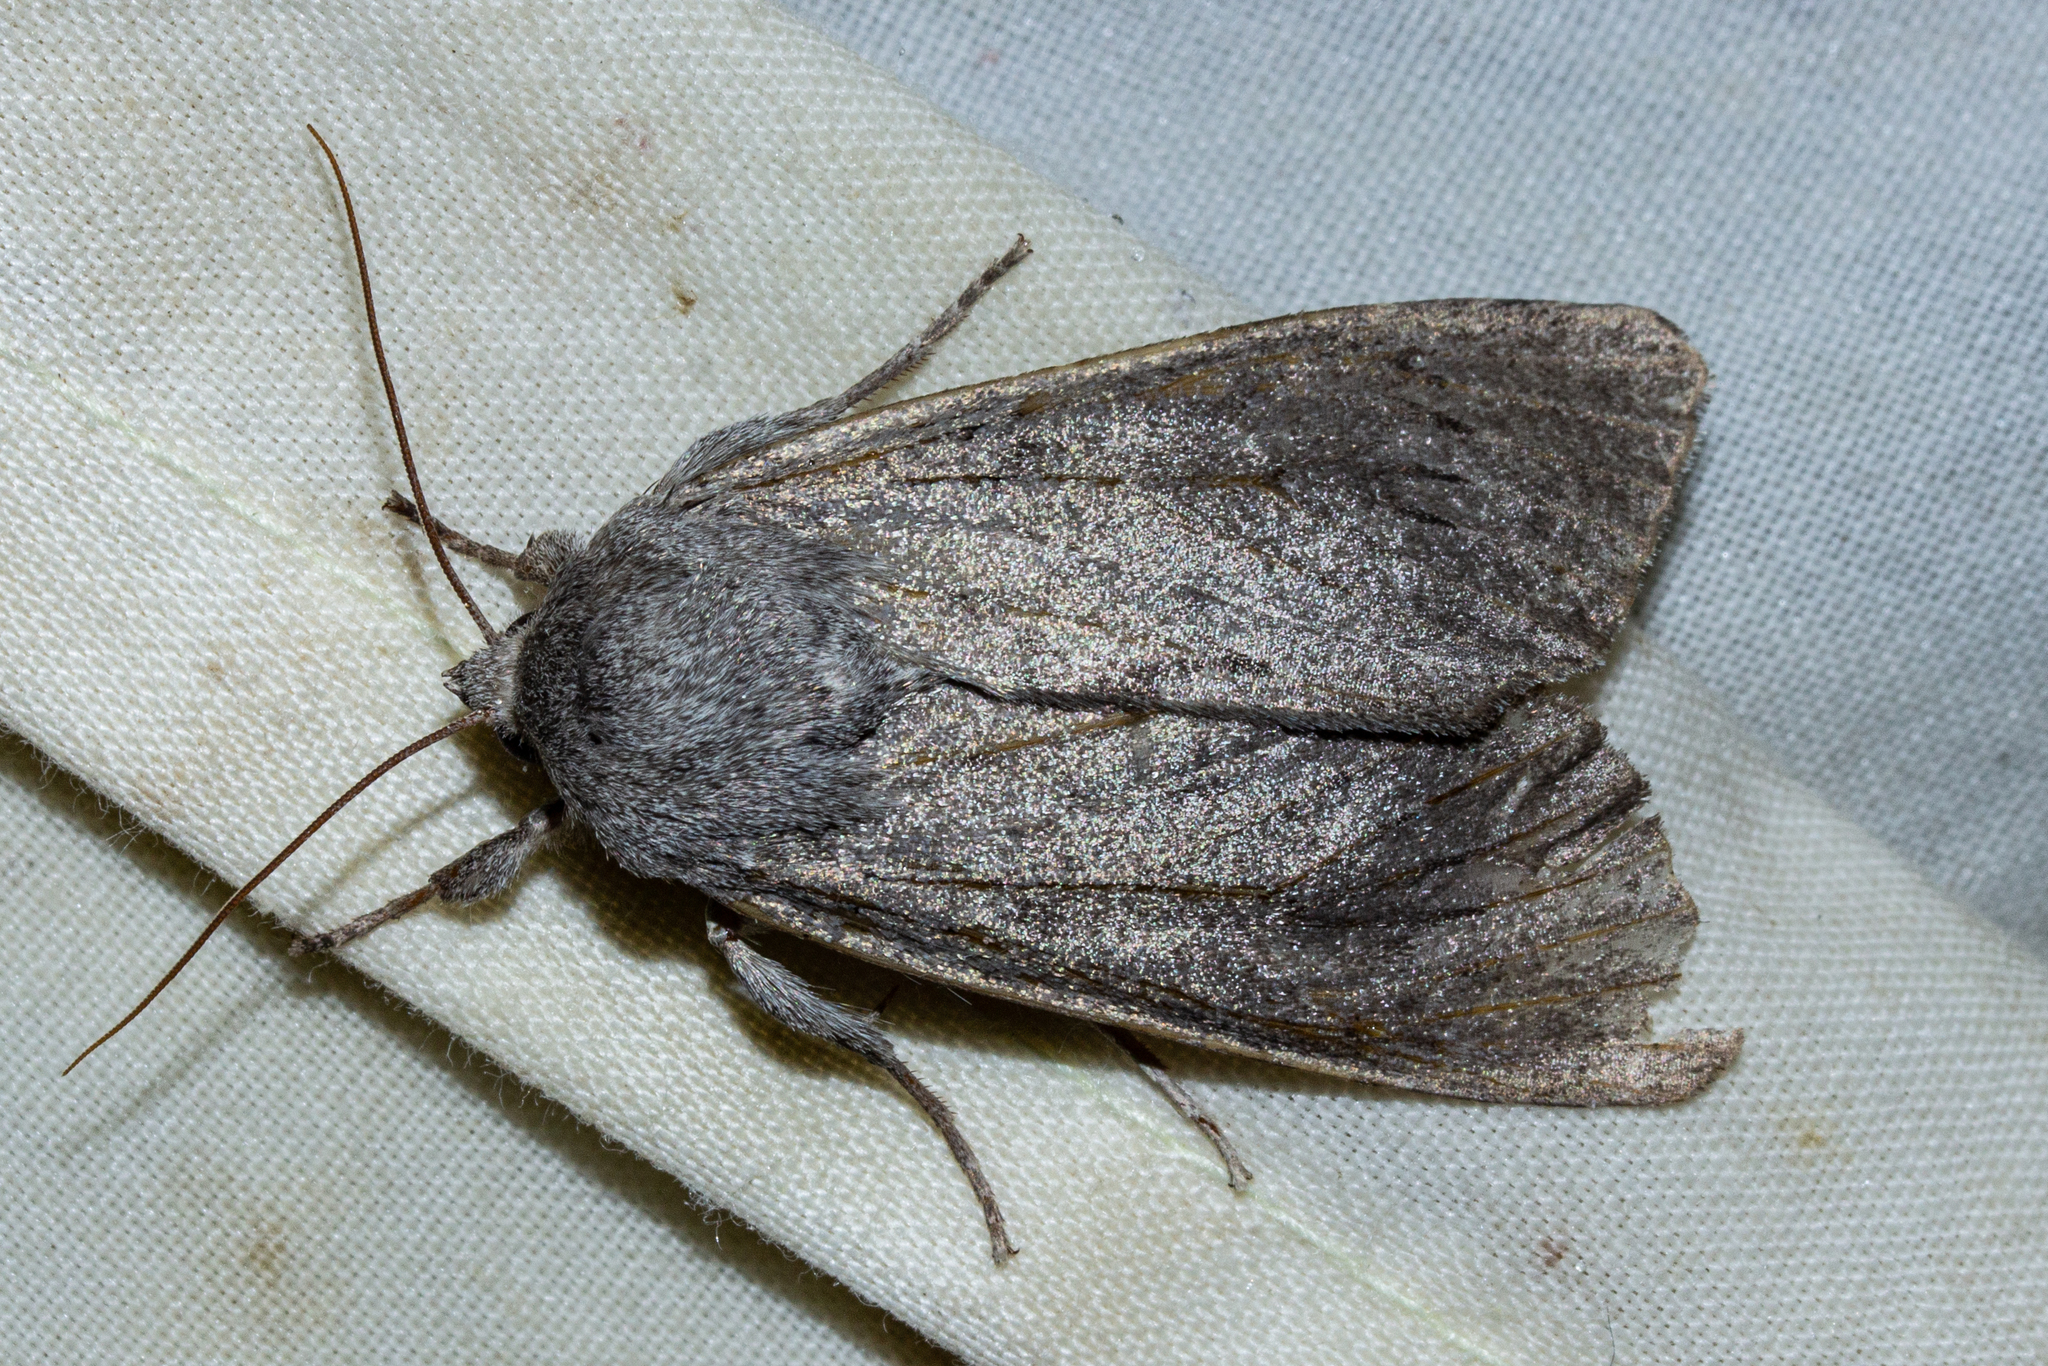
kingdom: Animalia
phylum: Arthropoda
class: Insecta
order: Lepidoptera
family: Noctuidae
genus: Ichneutica
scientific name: Ichneutica nullifera
